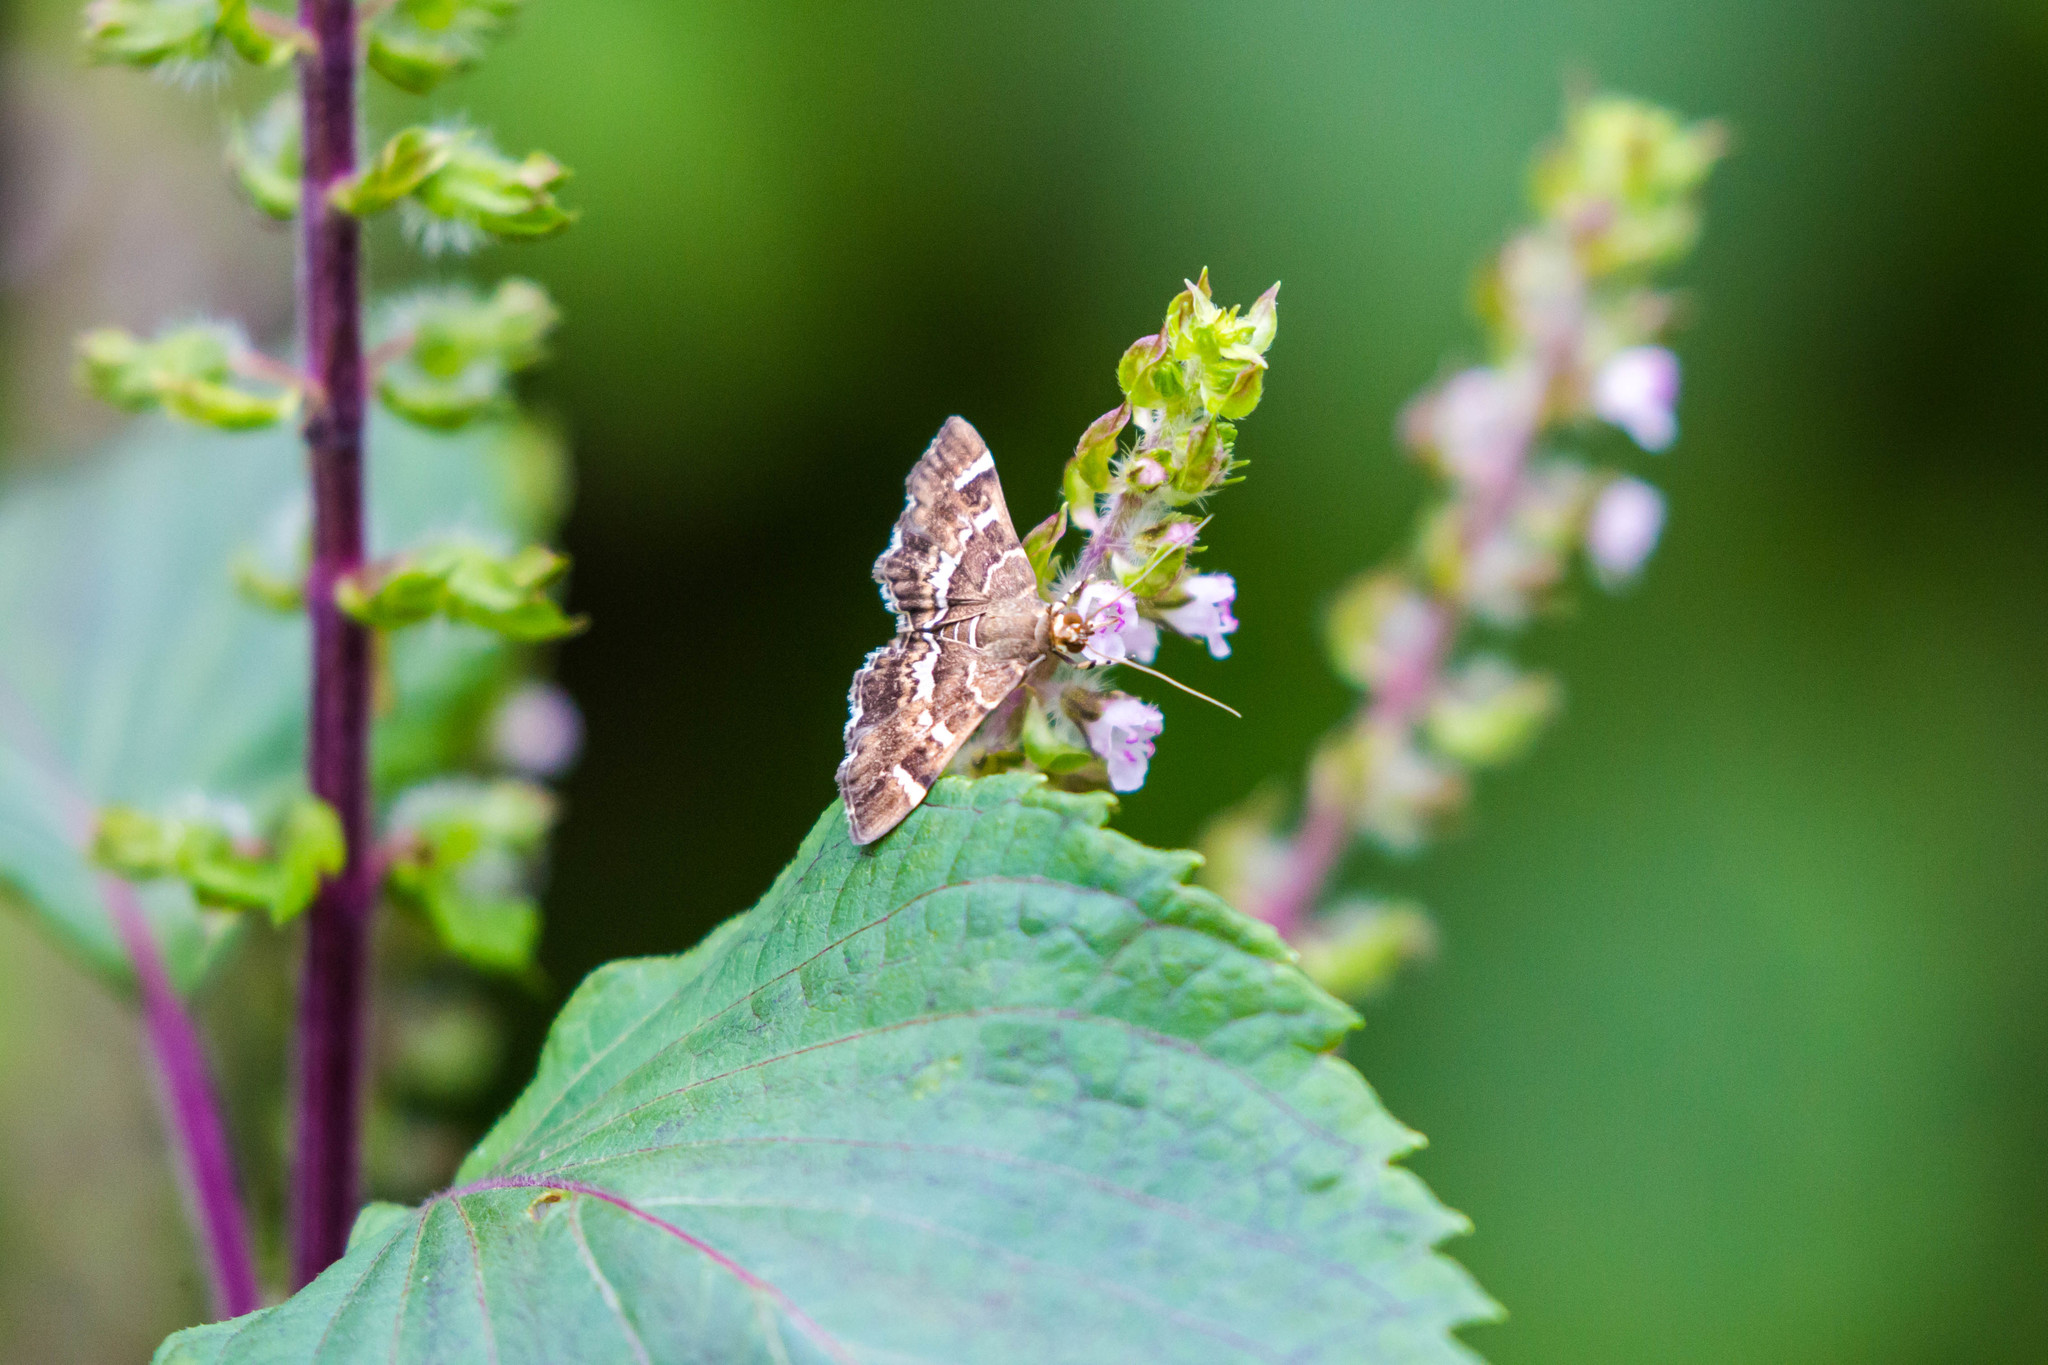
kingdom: Animalia
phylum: Arthropoda
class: Insecta
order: Lepidoptera
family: Crambidae
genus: Hymenia
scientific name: Hymenia perspectalis
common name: Spotted beet webworm
